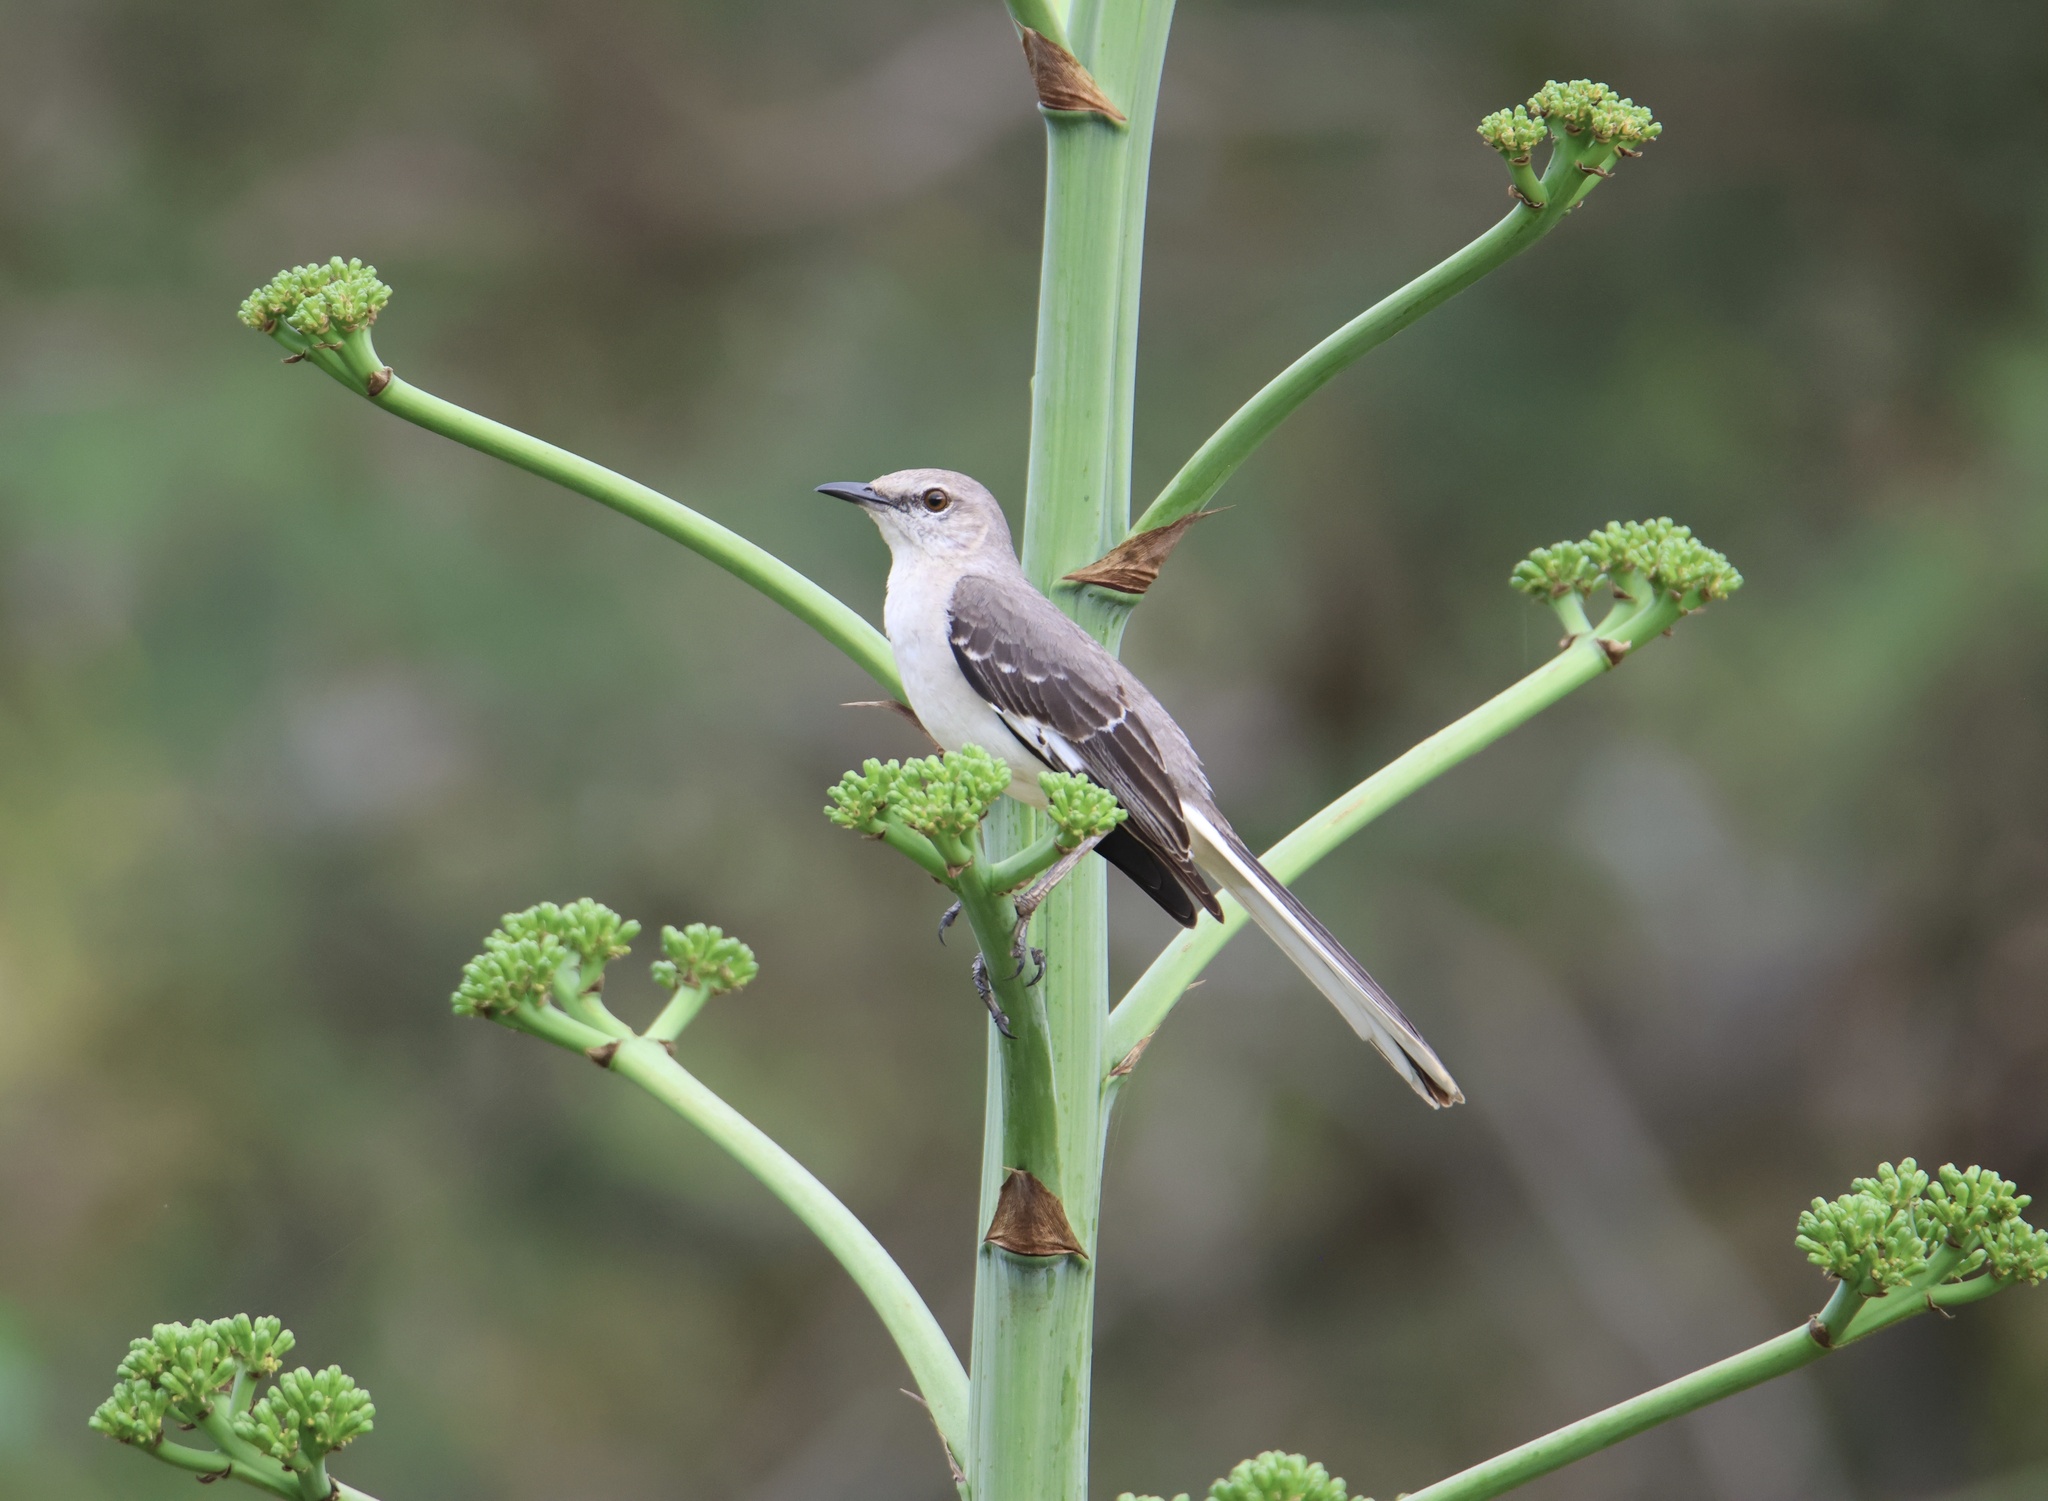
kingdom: Animalia
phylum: Chordata
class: Aves
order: Passeriformes
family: Mimidae
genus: Mimus
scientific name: Mimus polyglottos
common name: Northern mockingbird
